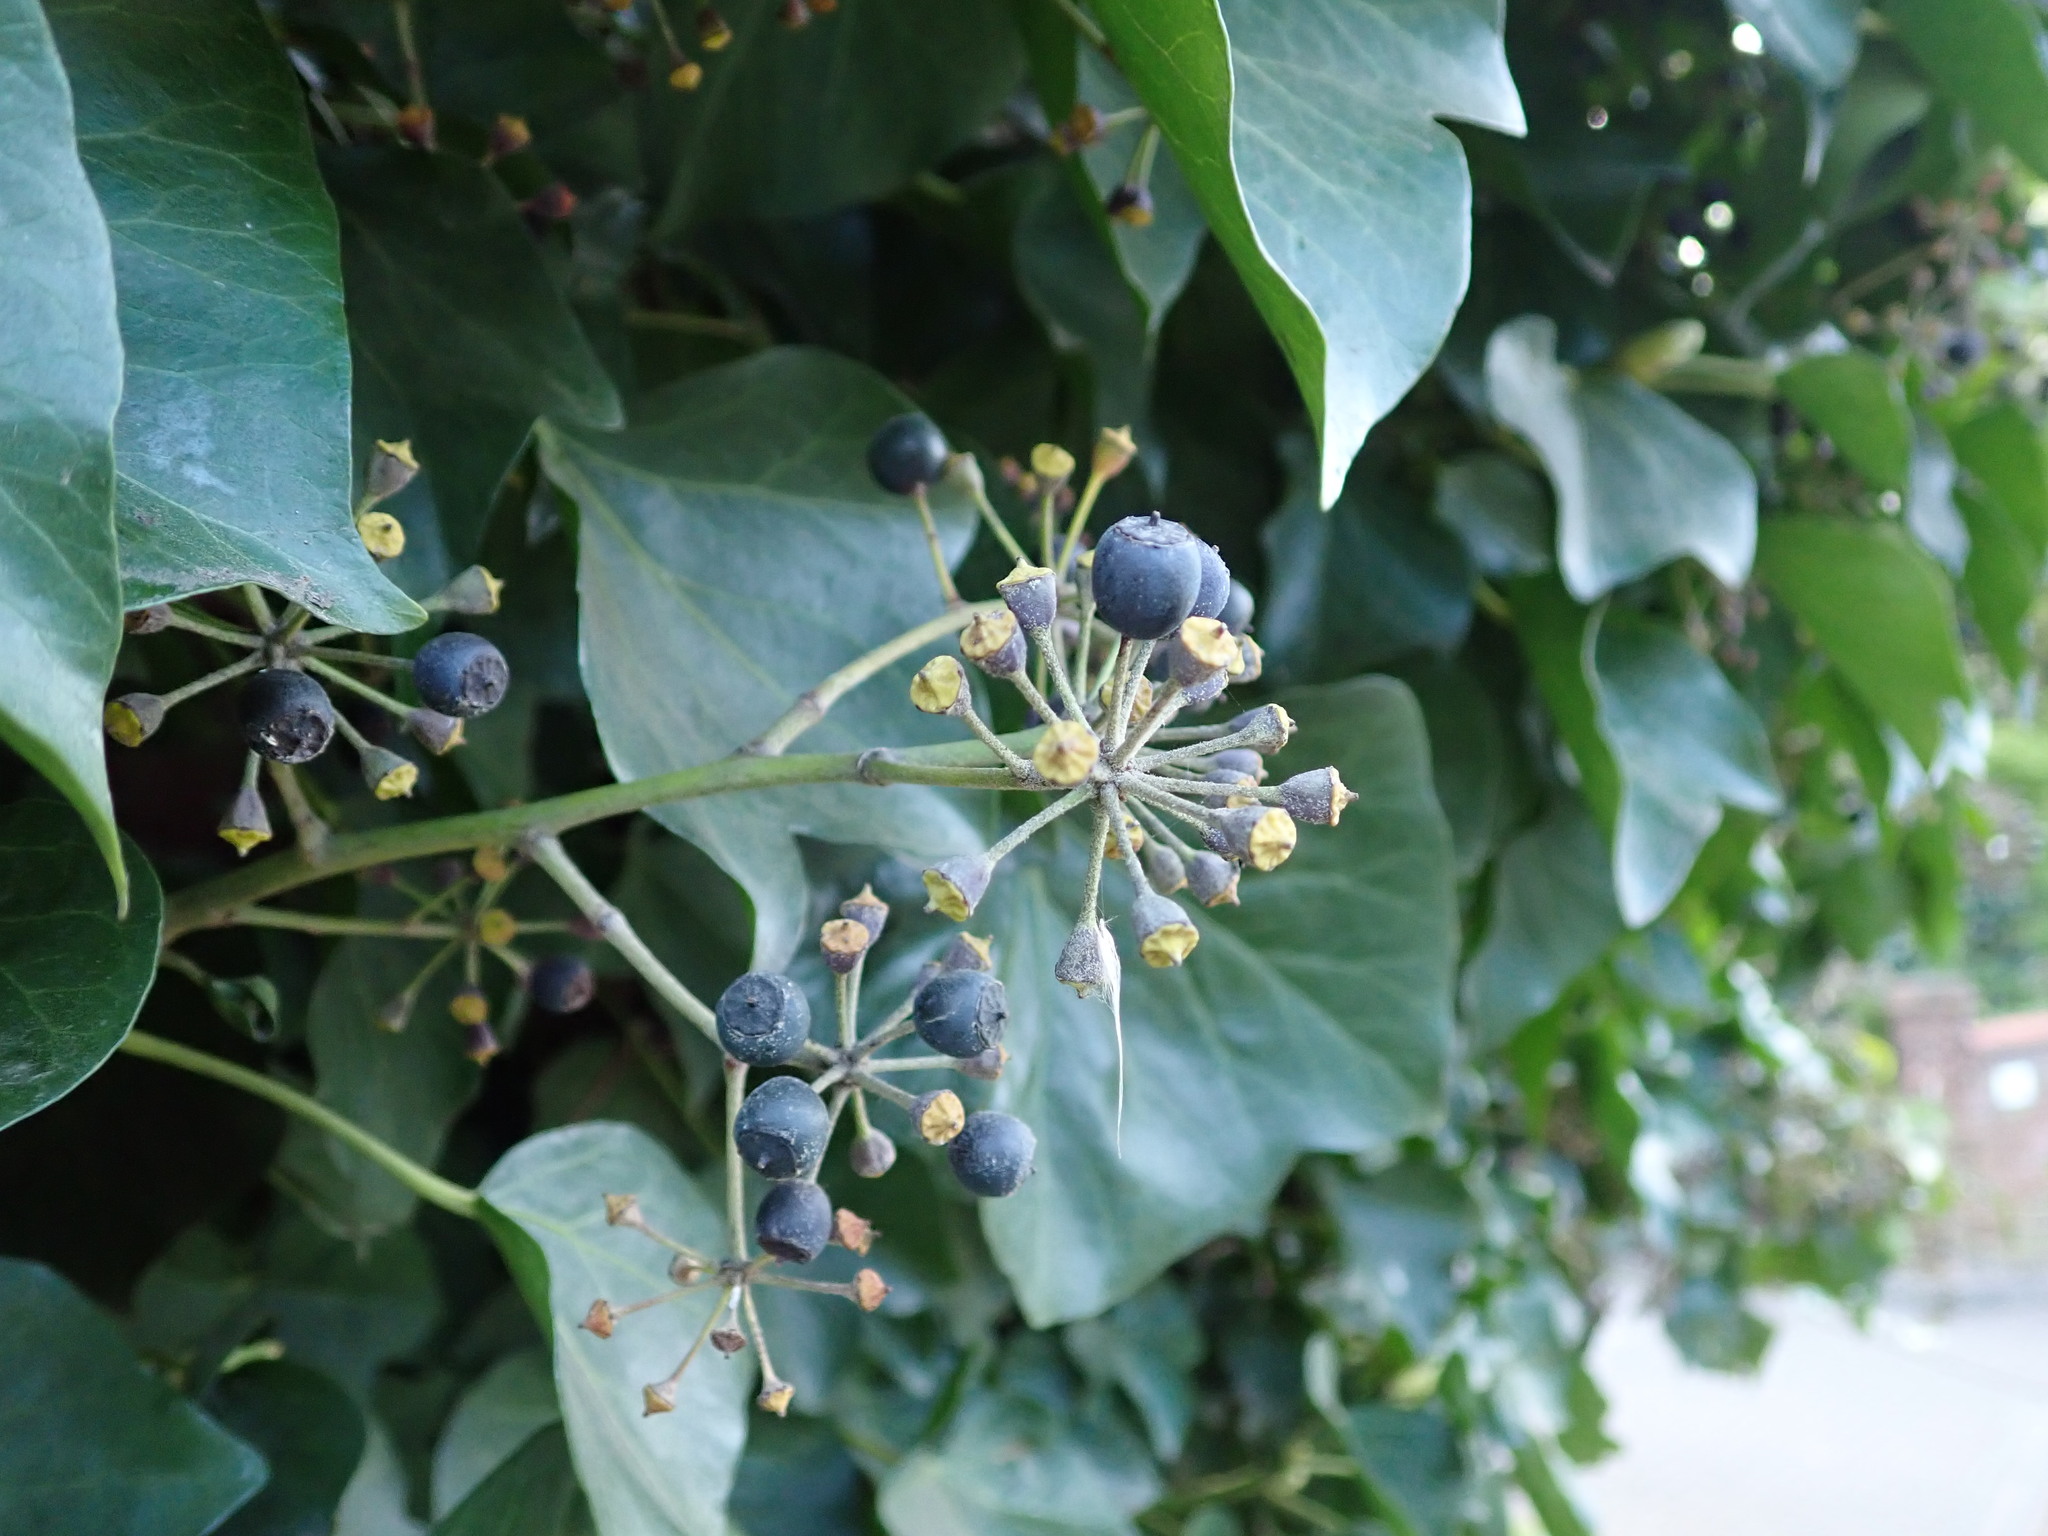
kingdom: Plantae
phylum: Tracheophyta
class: Magnoliopsida
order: Apiales
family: Araliaceae
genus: Hedera
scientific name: Hedera helix
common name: Ivy
